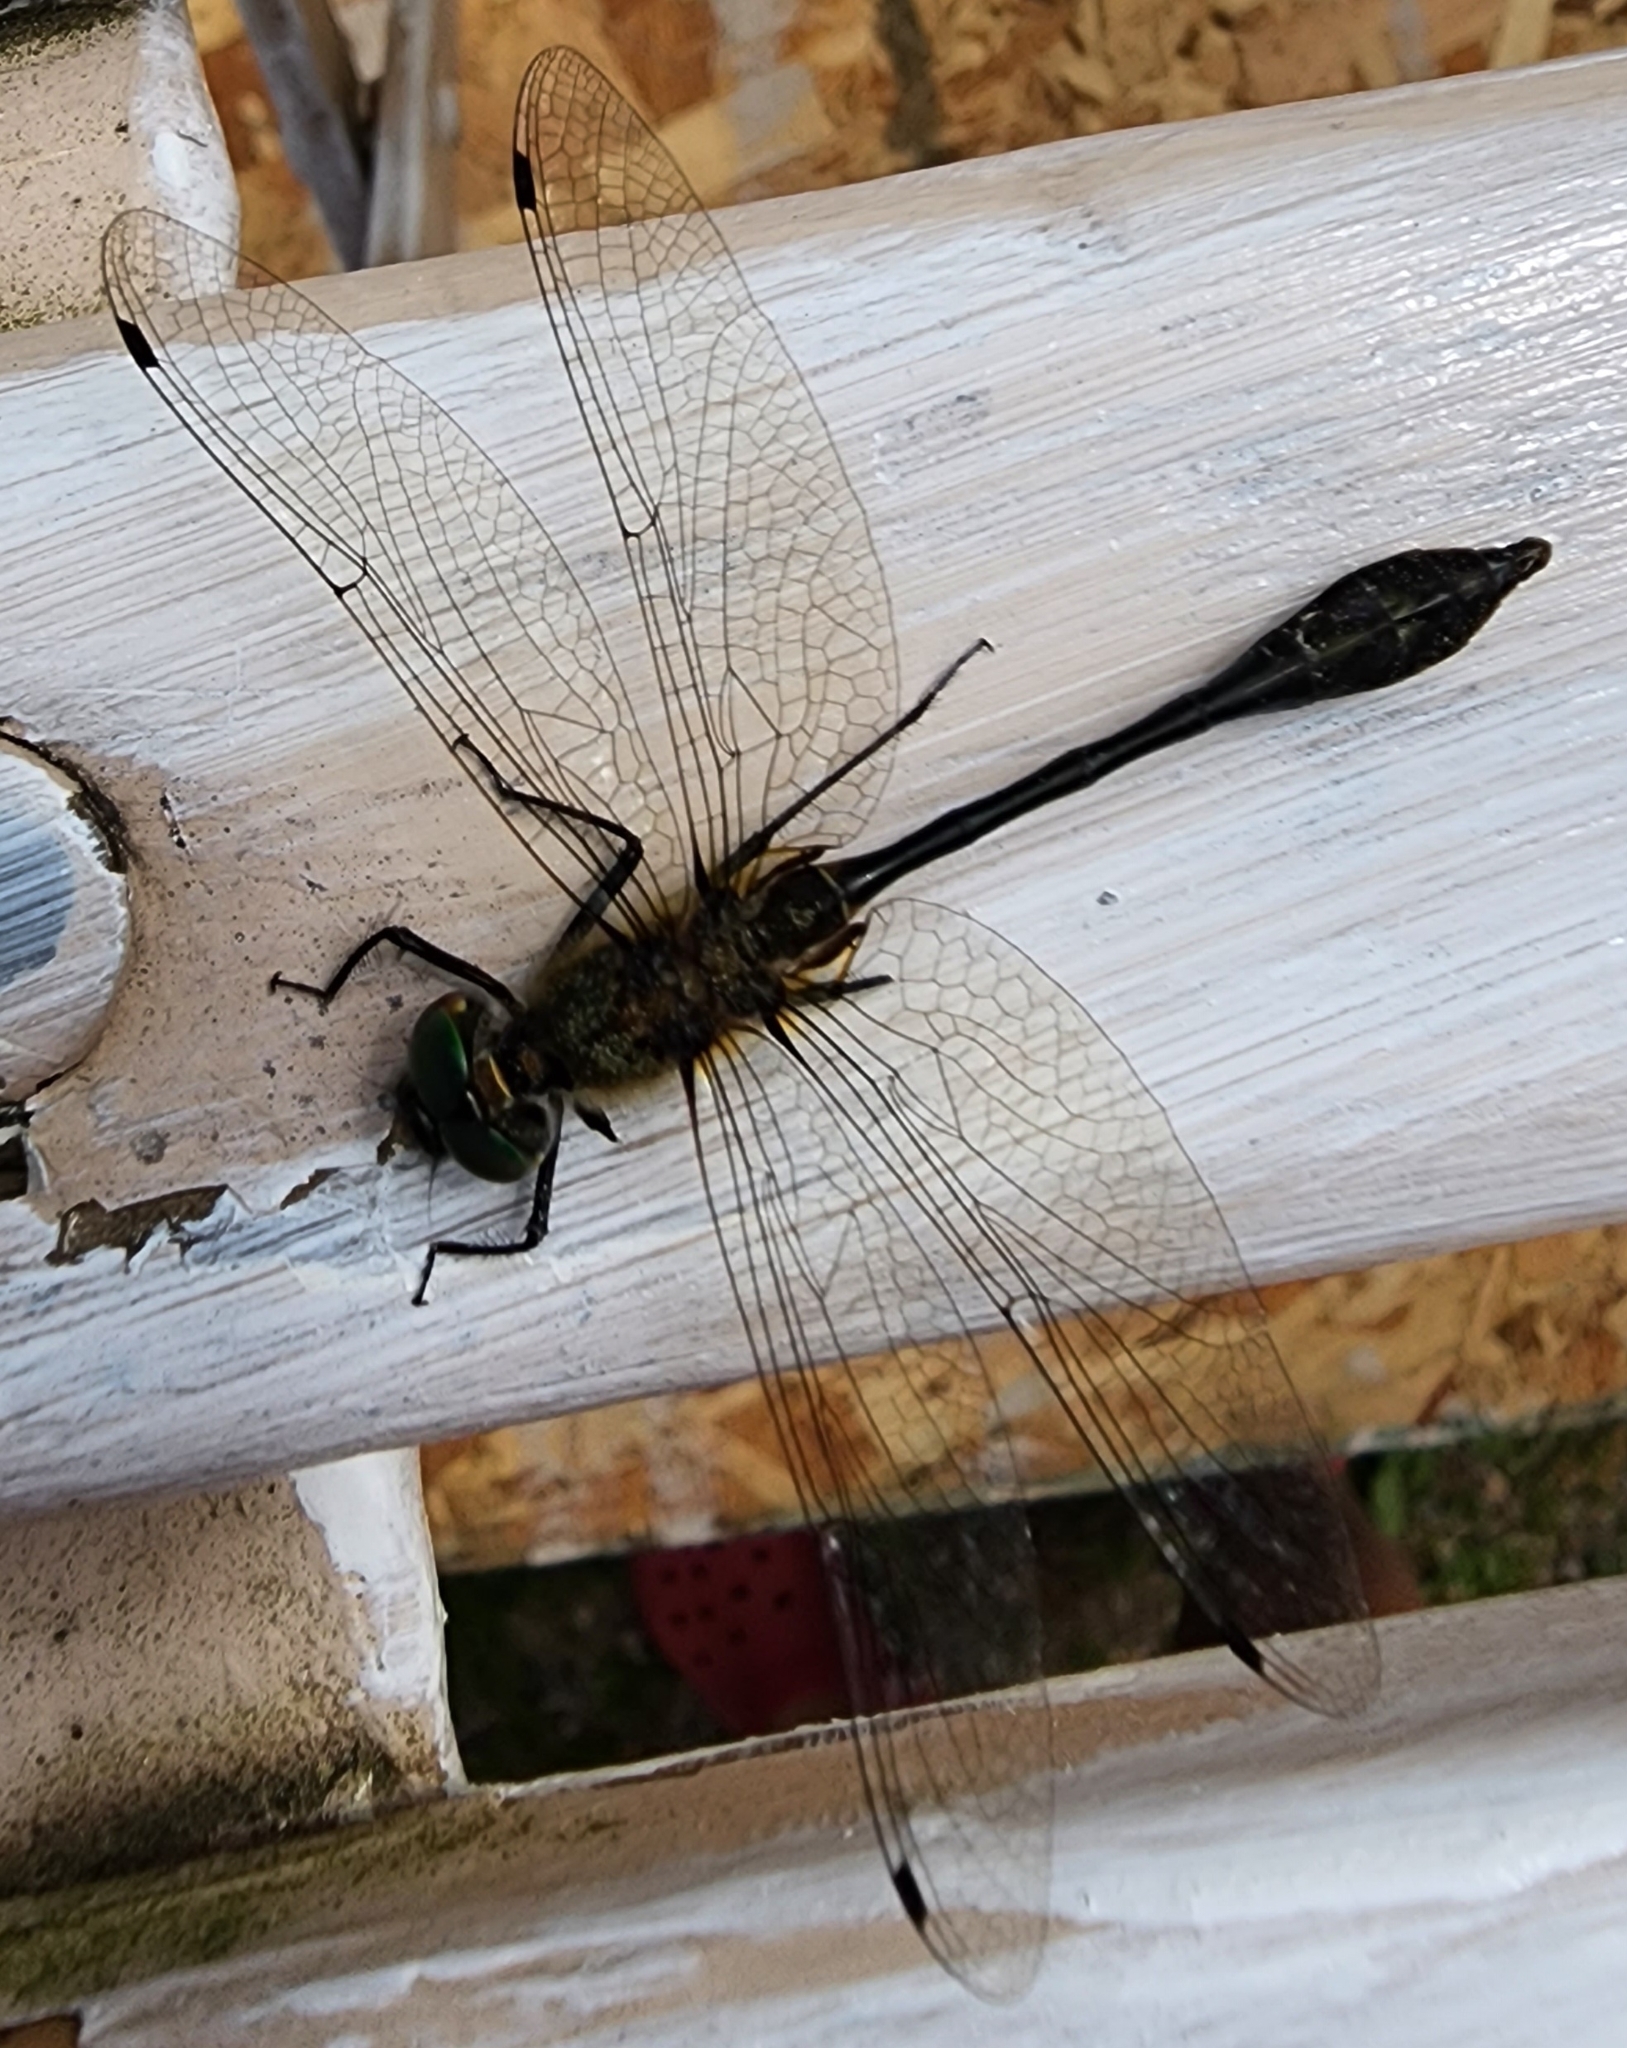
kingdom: Animalia
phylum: Arthropoda
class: Insecta
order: Odonata
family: Corduliidae
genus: Dorocordulia
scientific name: Dorocordulia libera
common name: Racket-tailed emerald
